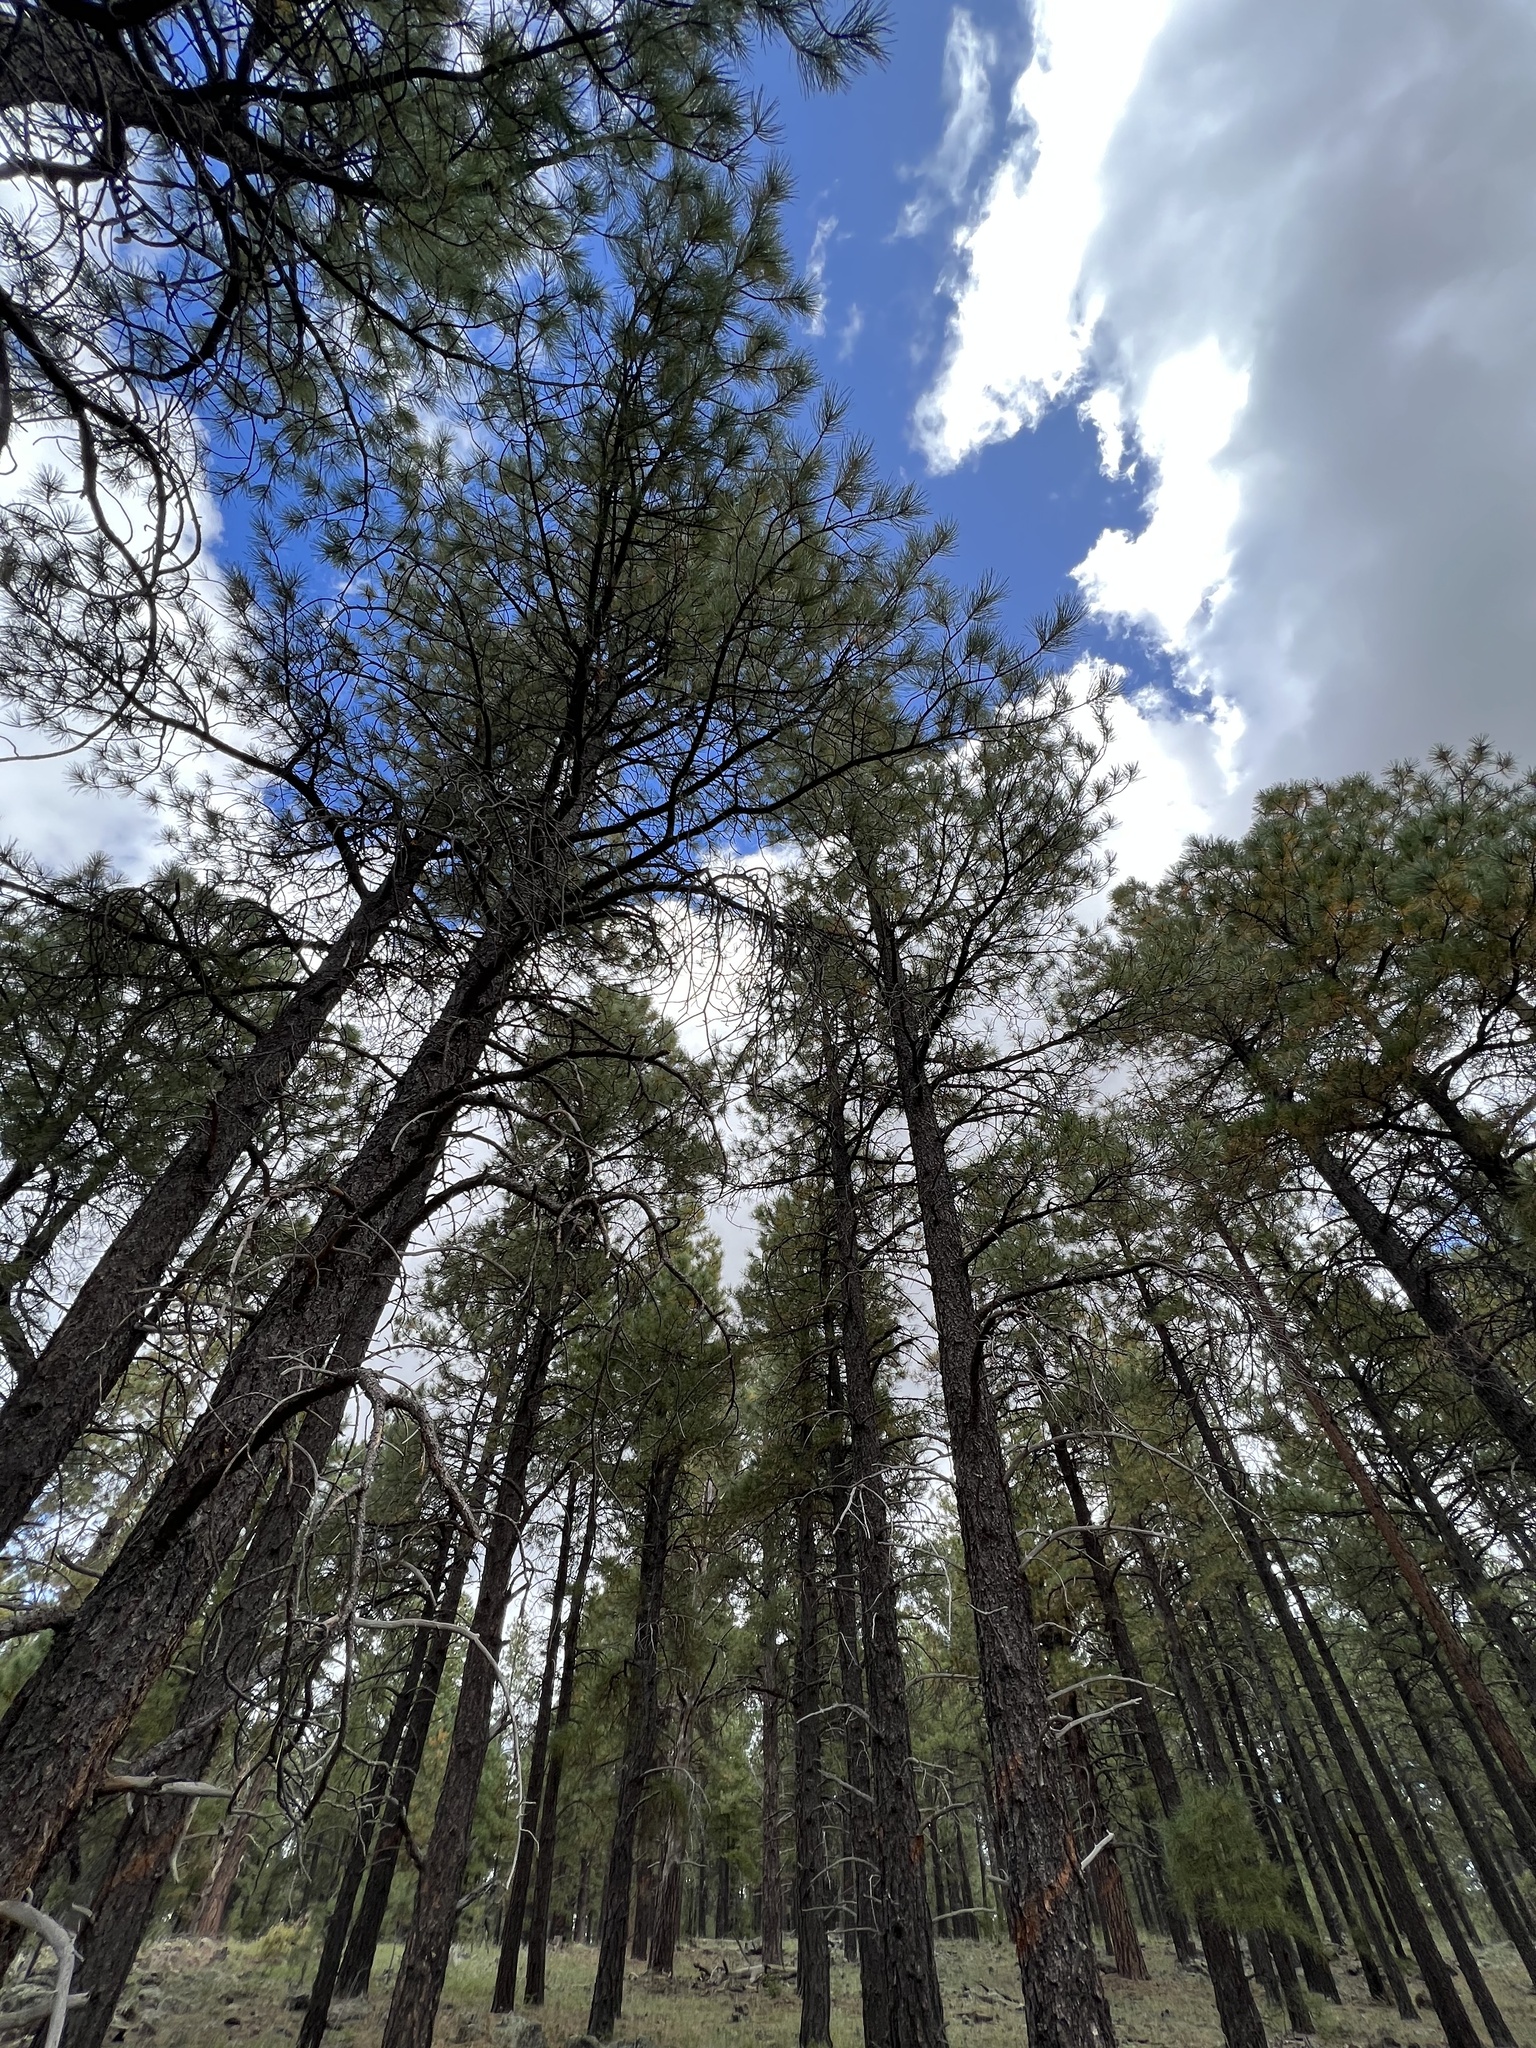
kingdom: Plantae
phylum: Tracheophyta
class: Pinopsida
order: Pinales
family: Pinaceae
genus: Pinus
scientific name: Pinus ponderosa
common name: Western yellow-pine
